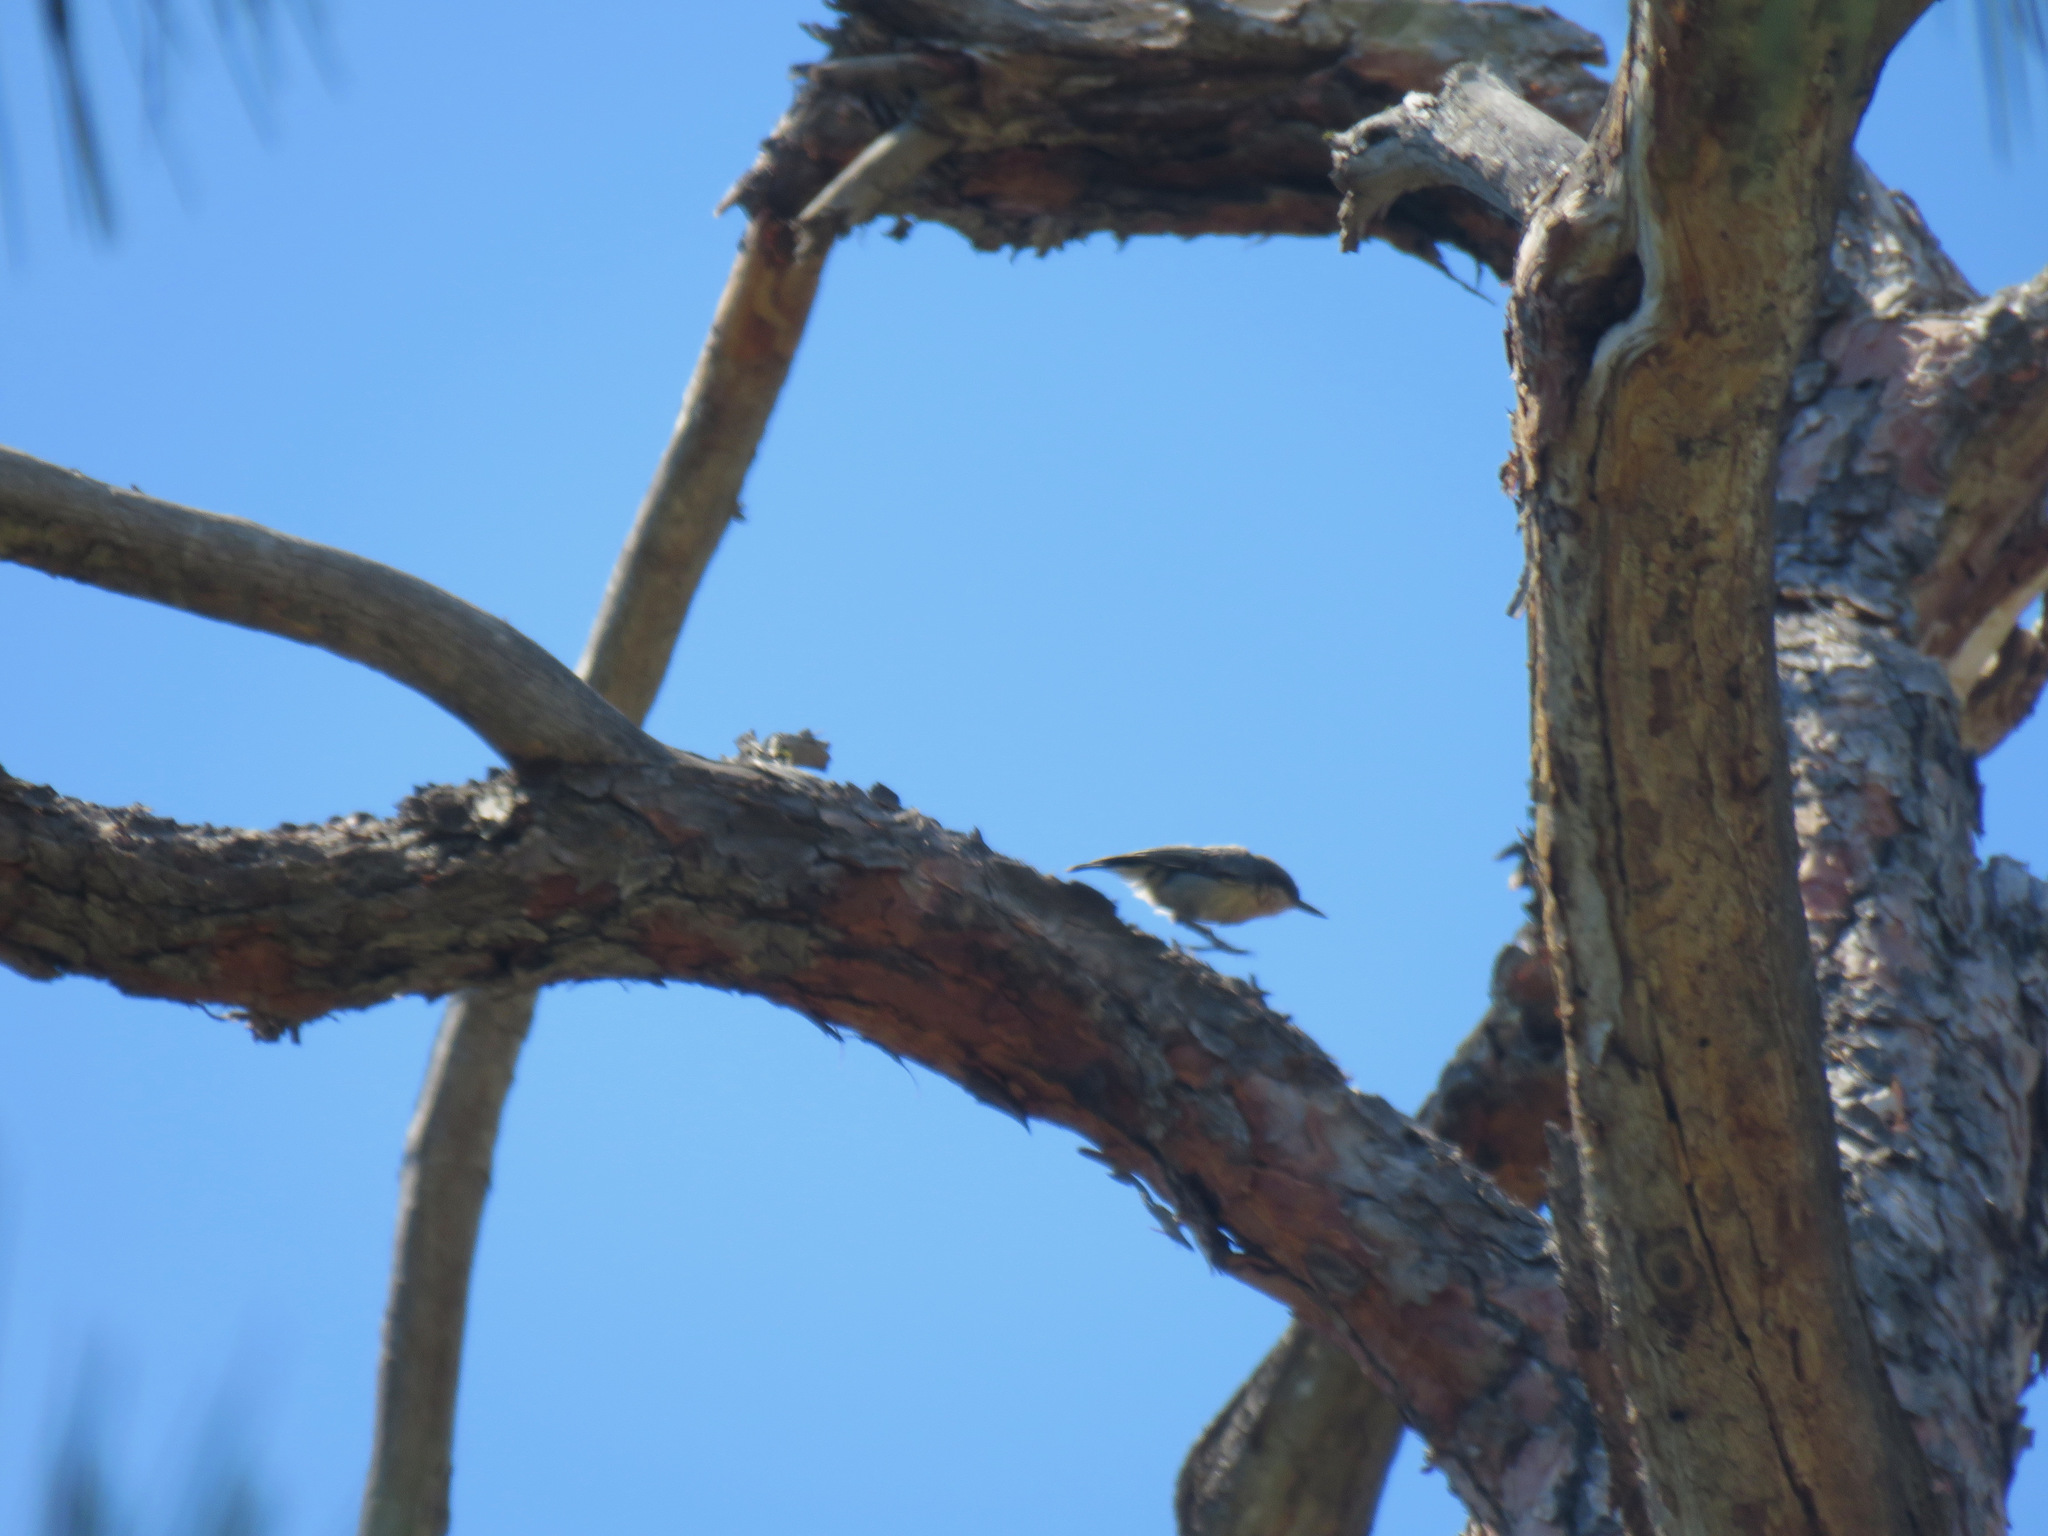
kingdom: Animalia
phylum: Chordata
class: Aves
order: Passeriformes
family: Sittidae
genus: Sitta
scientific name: Sitta pygmaea
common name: Pygmy nuthatch
